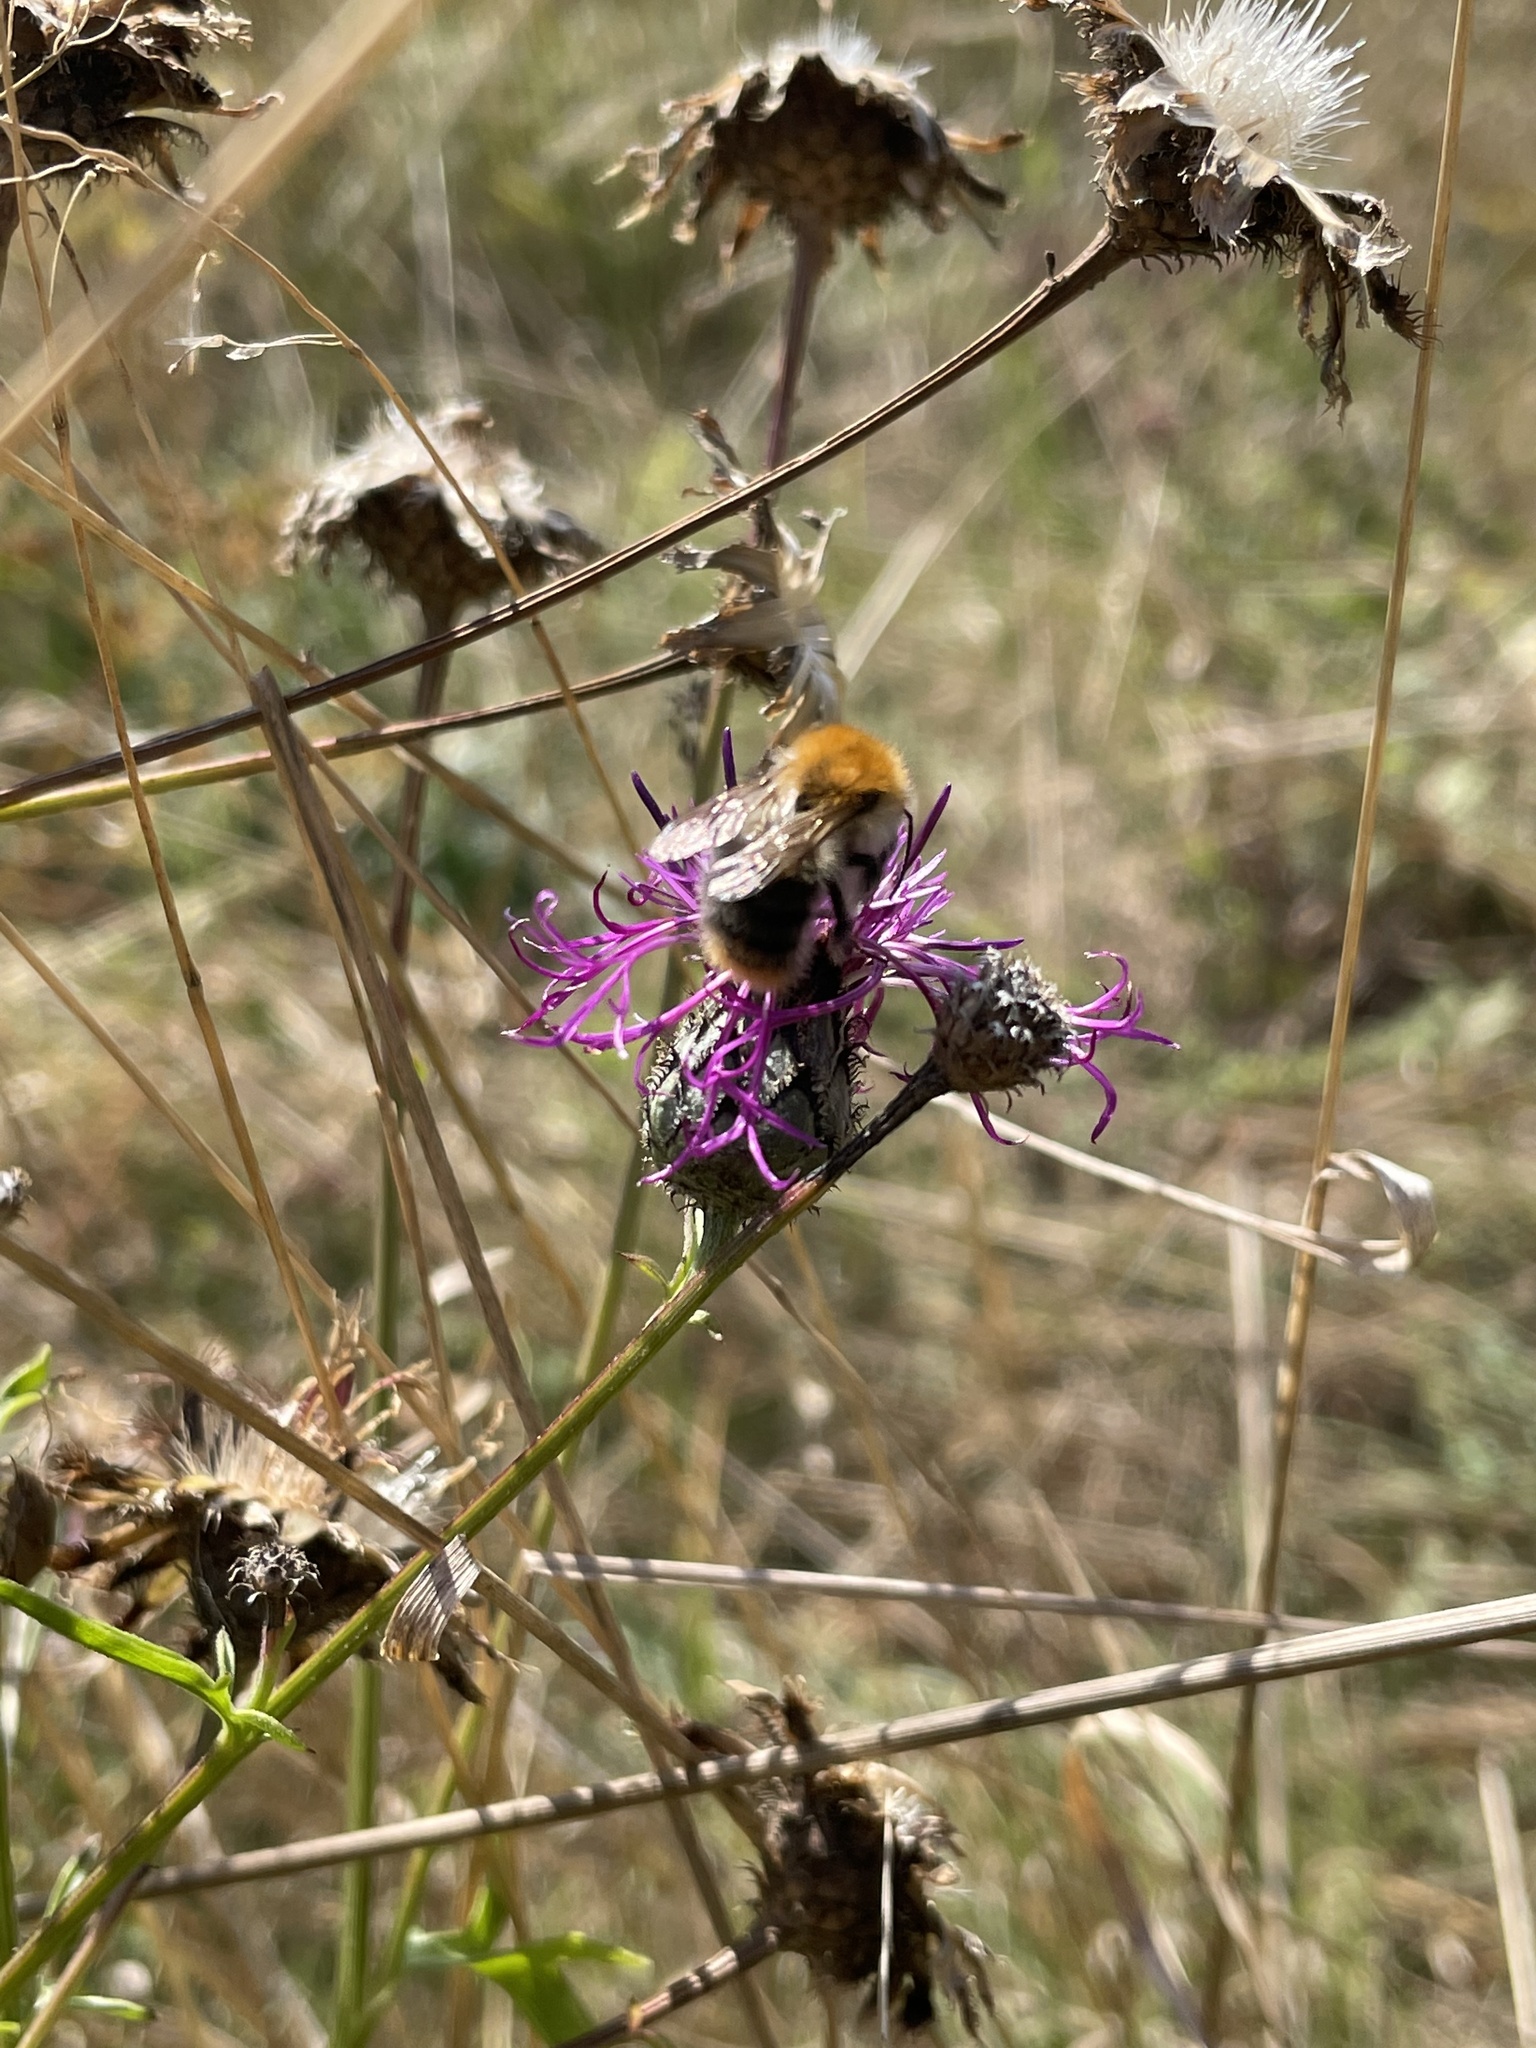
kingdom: Animalia
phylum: Arthropoda
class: Insecta
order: Hymenoptera
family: Apidae
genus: Bombus
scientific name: Bombus pascuorum
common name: Common carder bee
